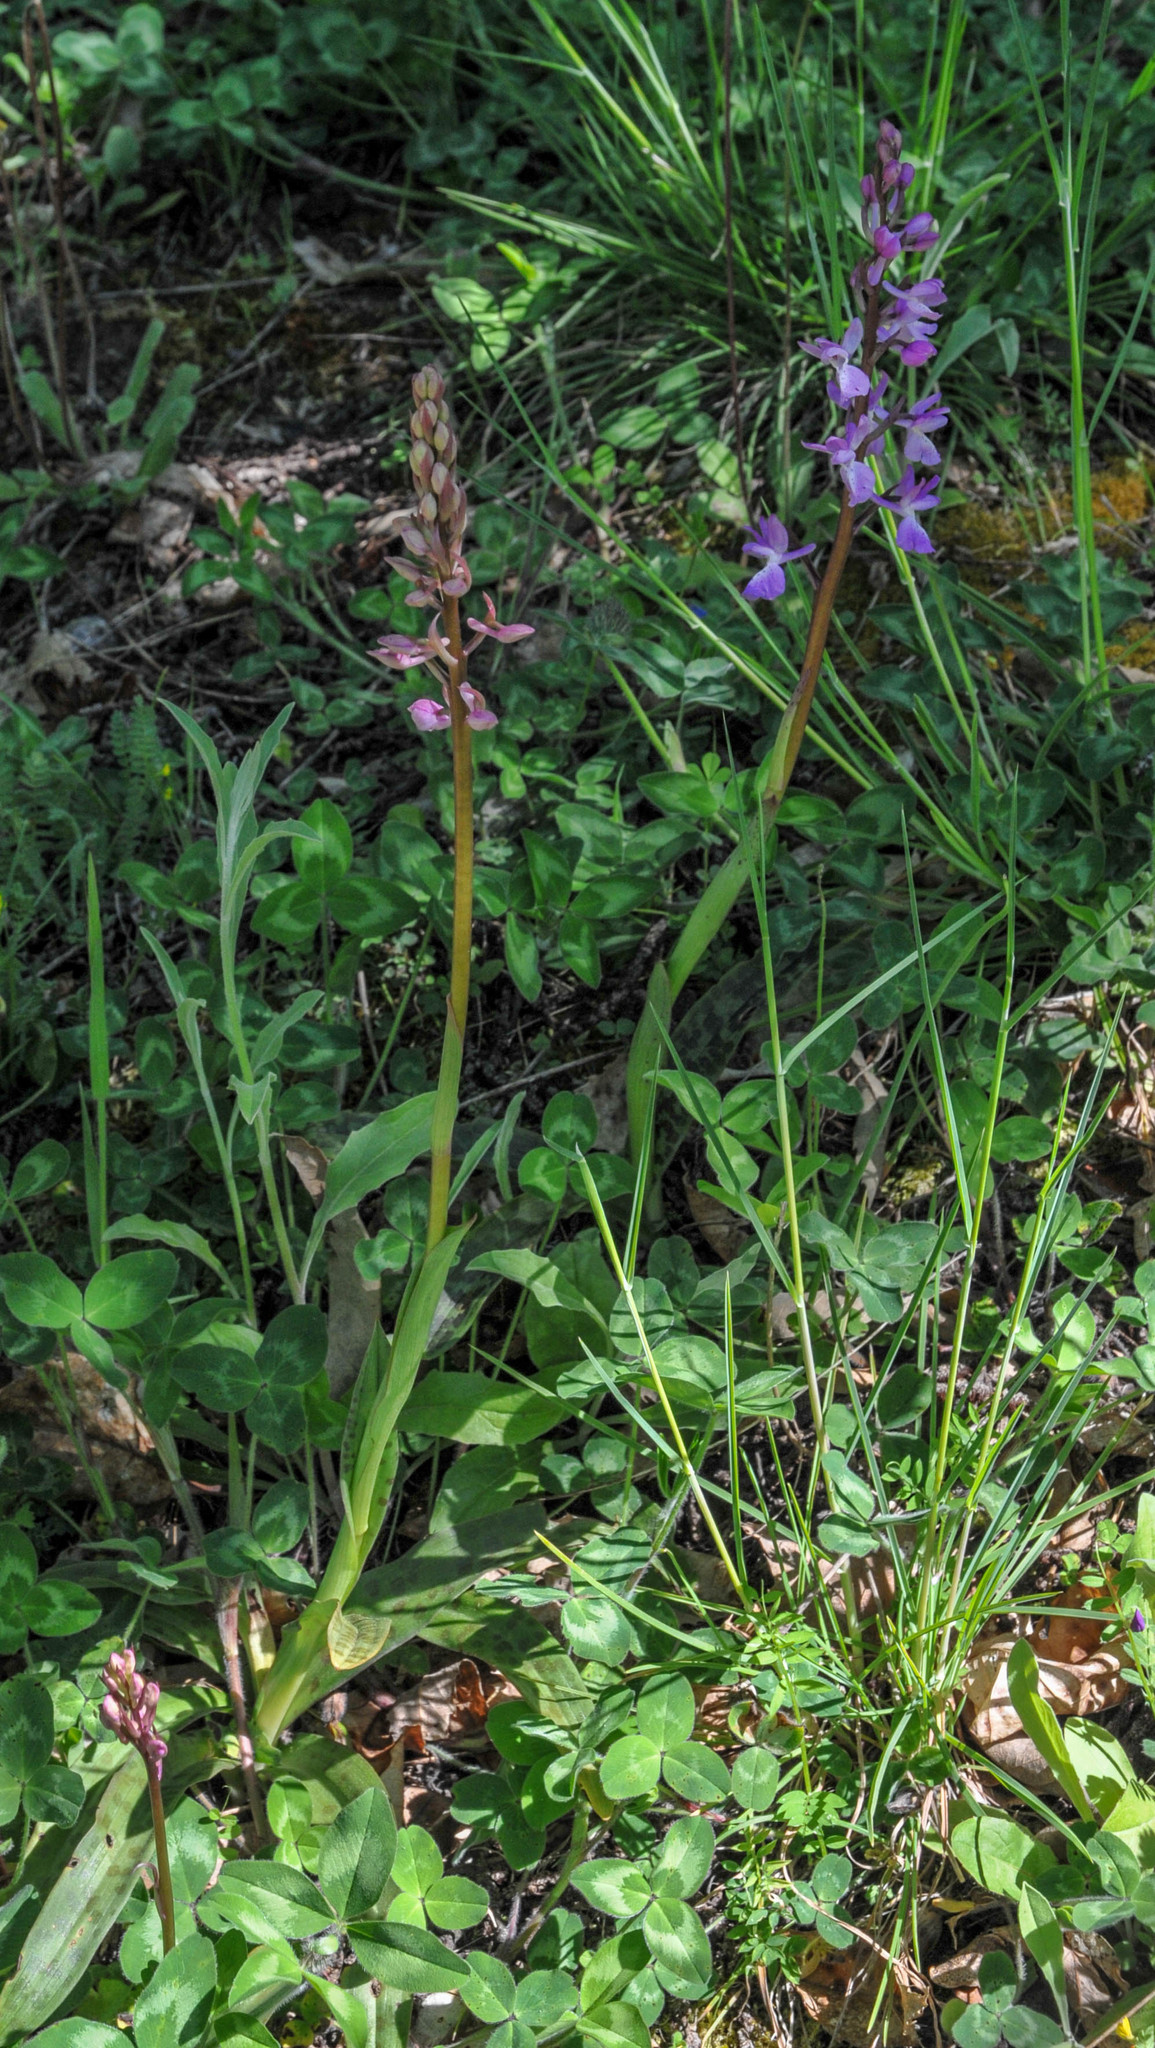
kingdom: Plantae
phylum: Tracheophyta
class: Liliopsida
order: Asparagales
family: Orchidaceae
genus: Orchis
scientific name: Orchis mascula
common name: Early-purple orchid
